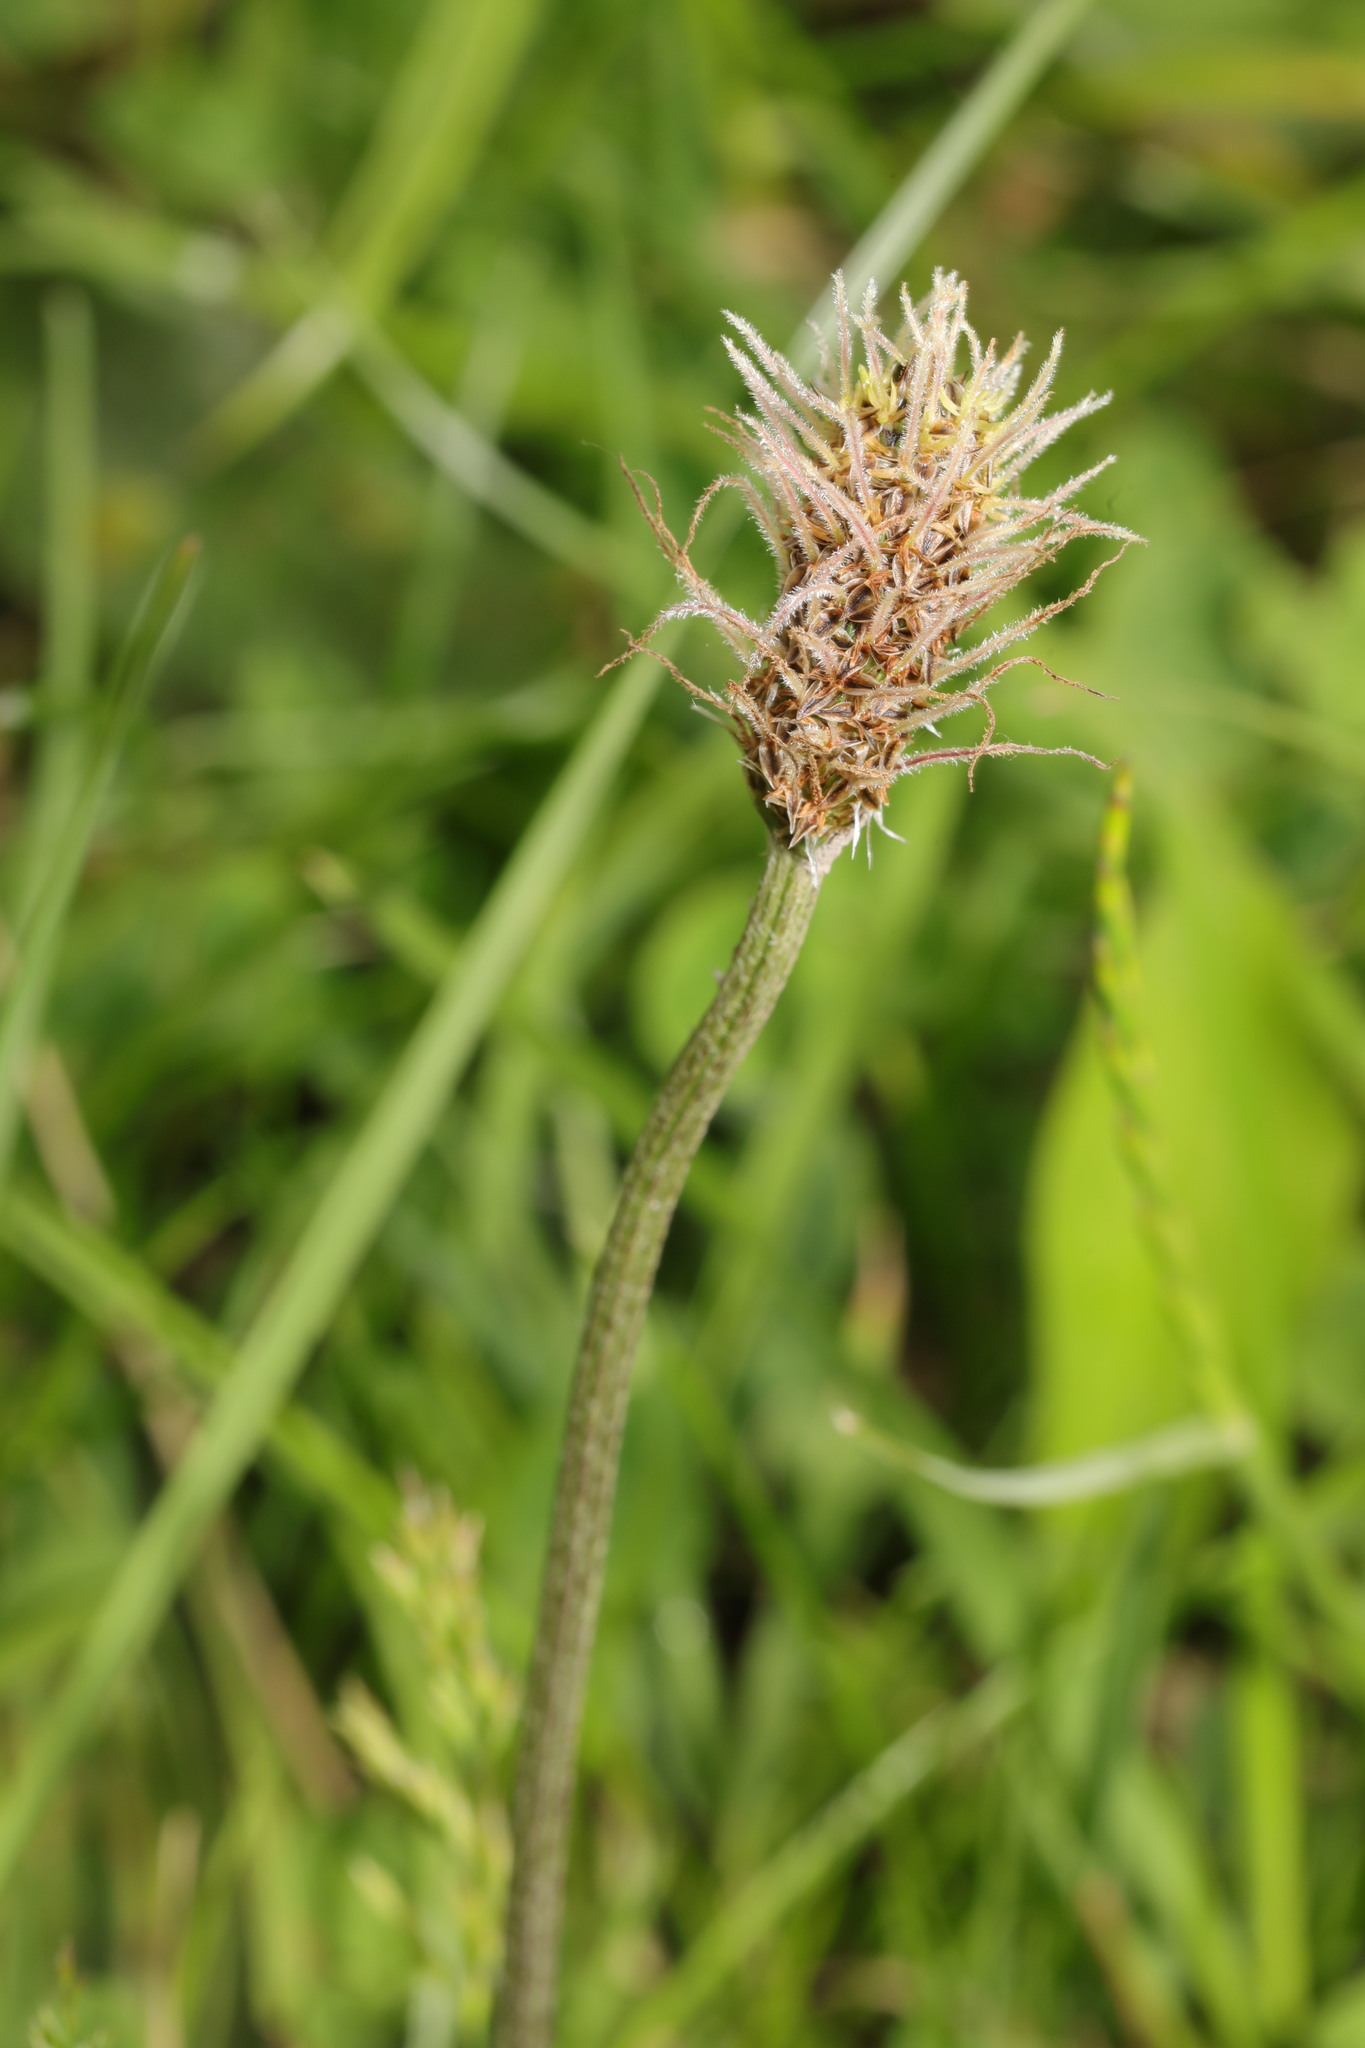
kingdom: Plantae
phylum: Tracheophyta
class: Magnoliopsida
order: Lamiales
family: Plantaginaceae
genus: Plantago
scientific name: Plantago lanceolata
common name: Ribwort plantain
